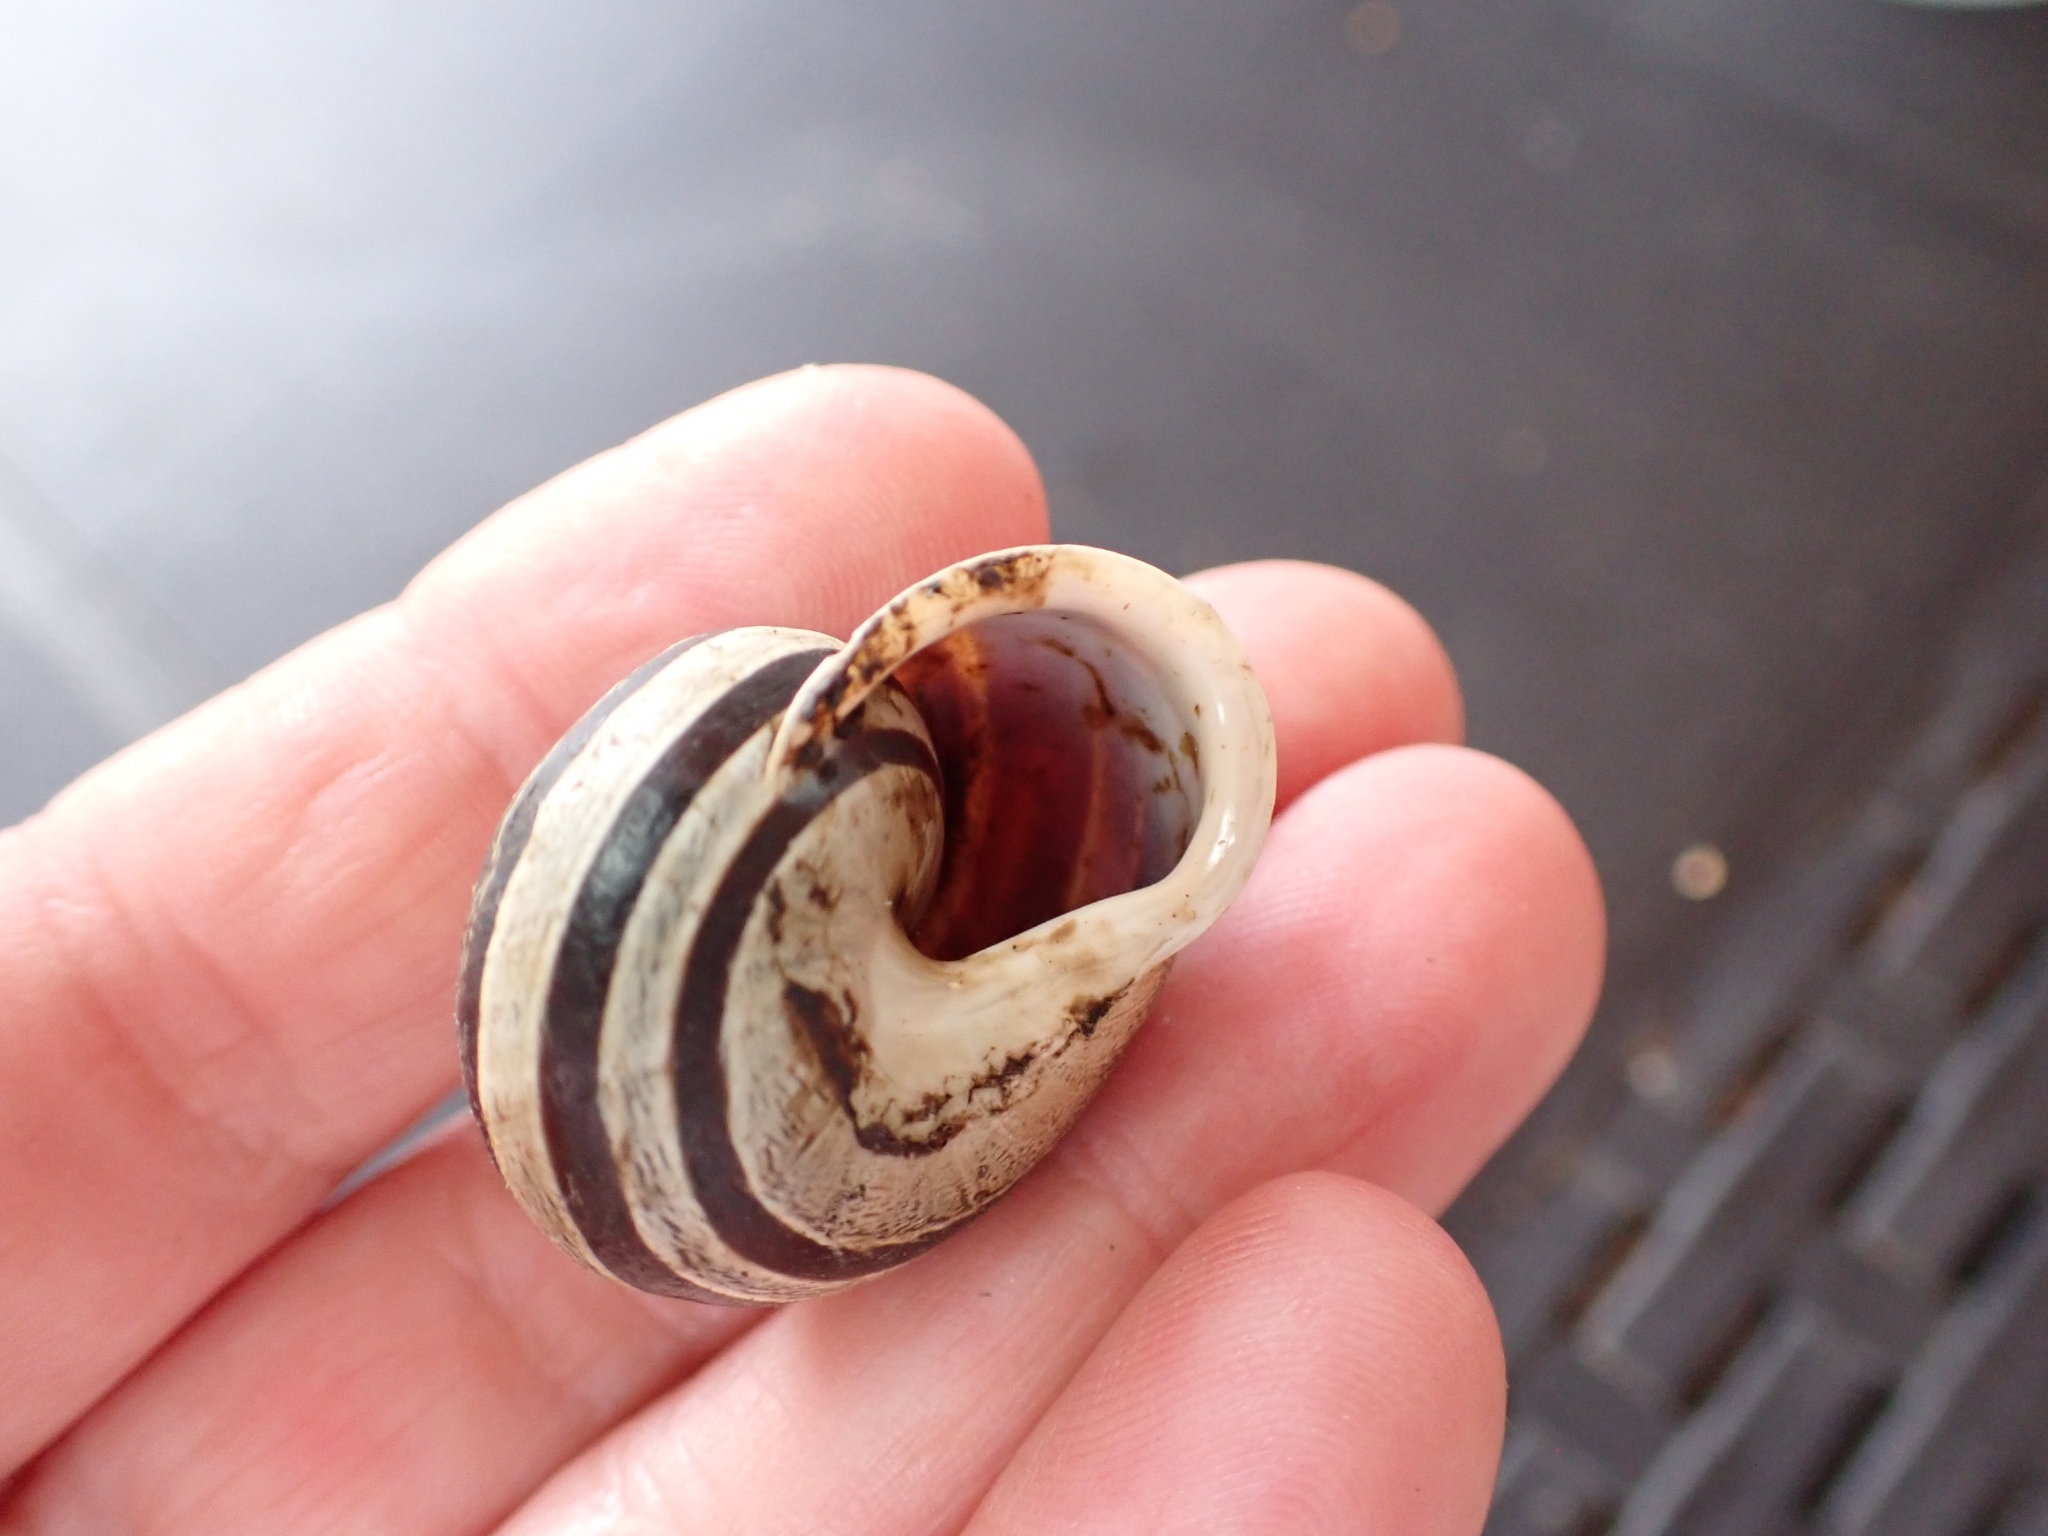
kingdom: Animalia
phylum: Mollusca
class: Gastropoda
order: Stylommatophora
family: Helicidae
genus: Eobania
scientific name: Eobania vermiculata
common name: Chocolateband snail
